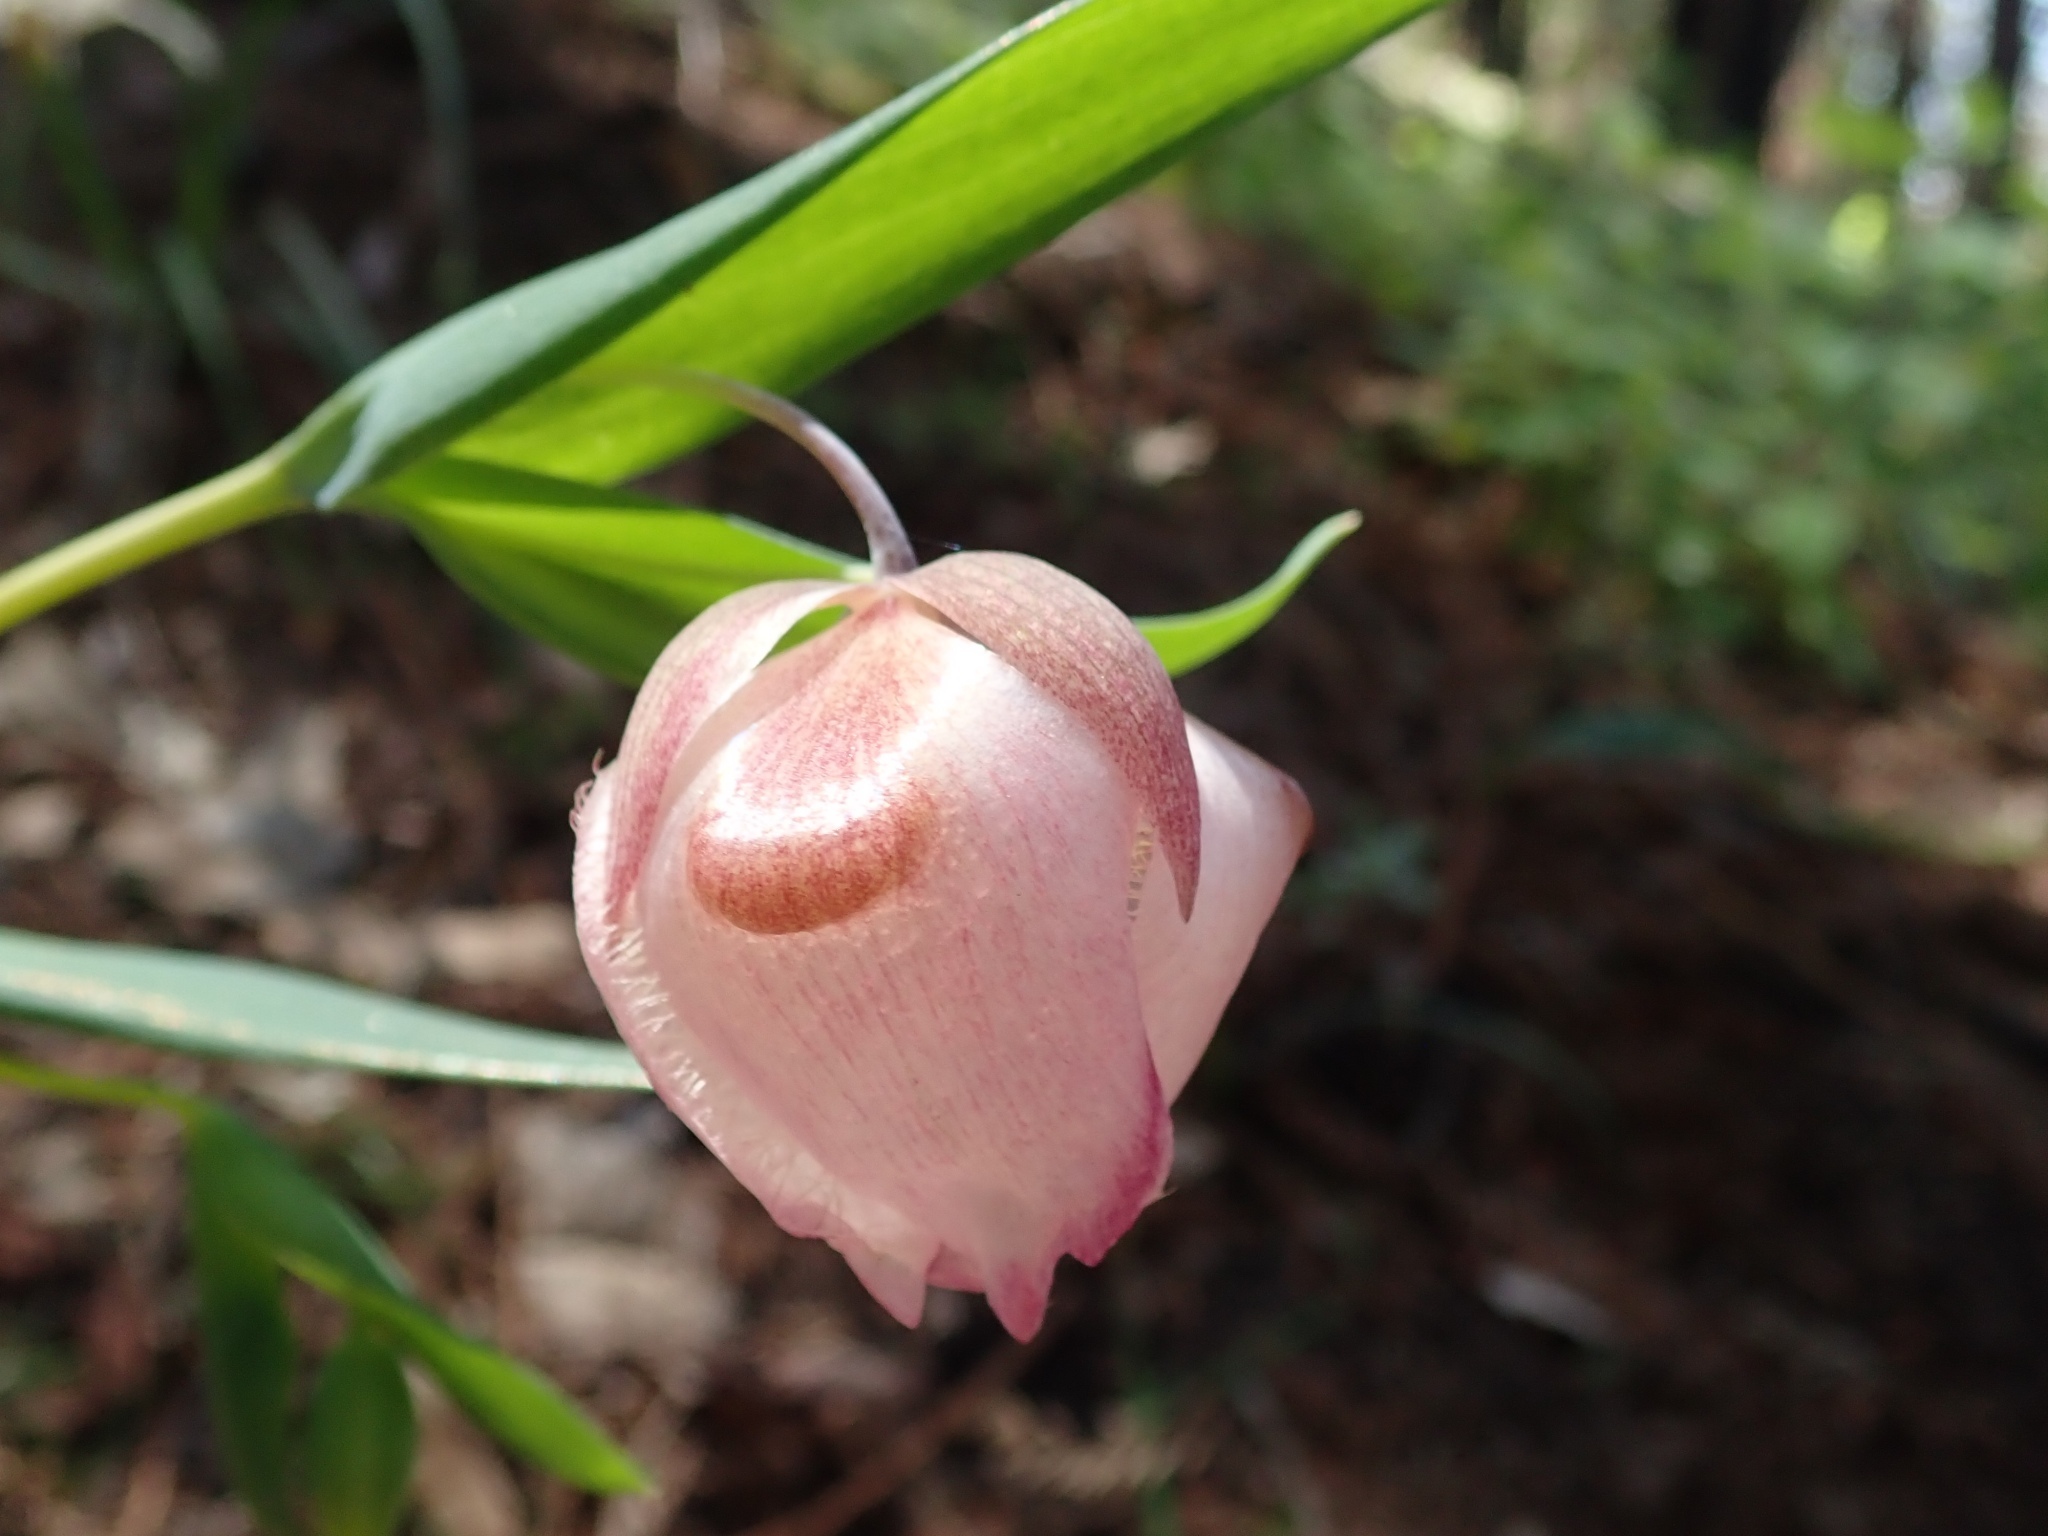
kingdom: Plantae
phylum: Tracheophyta
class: Liliopsida
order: Liliales
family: Liliaceae
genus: Calochortus
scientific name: Calochortus albus
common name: Fairy-lantern
